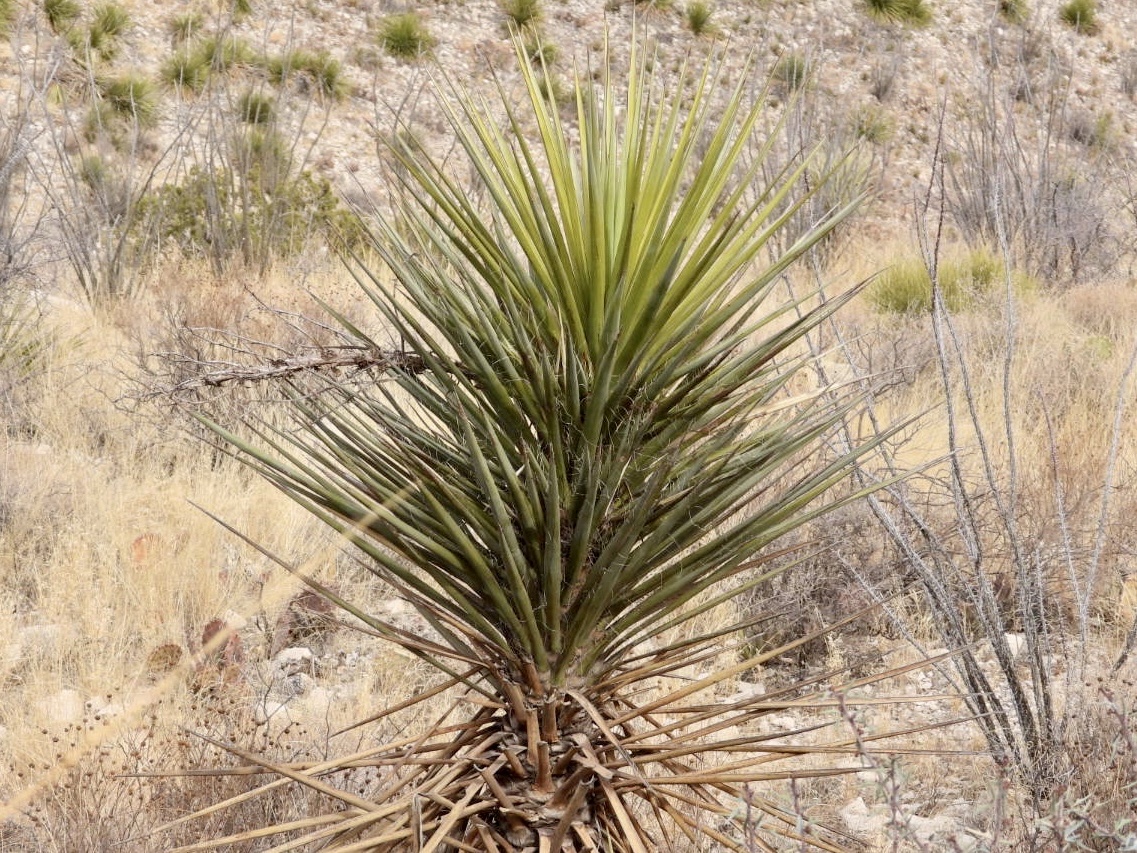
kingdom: Plantae
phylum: Tracheophyta
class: Liliopsida
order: Asparagales
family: Asparagaceae
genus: Yucca
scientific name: Yucca treculiana
